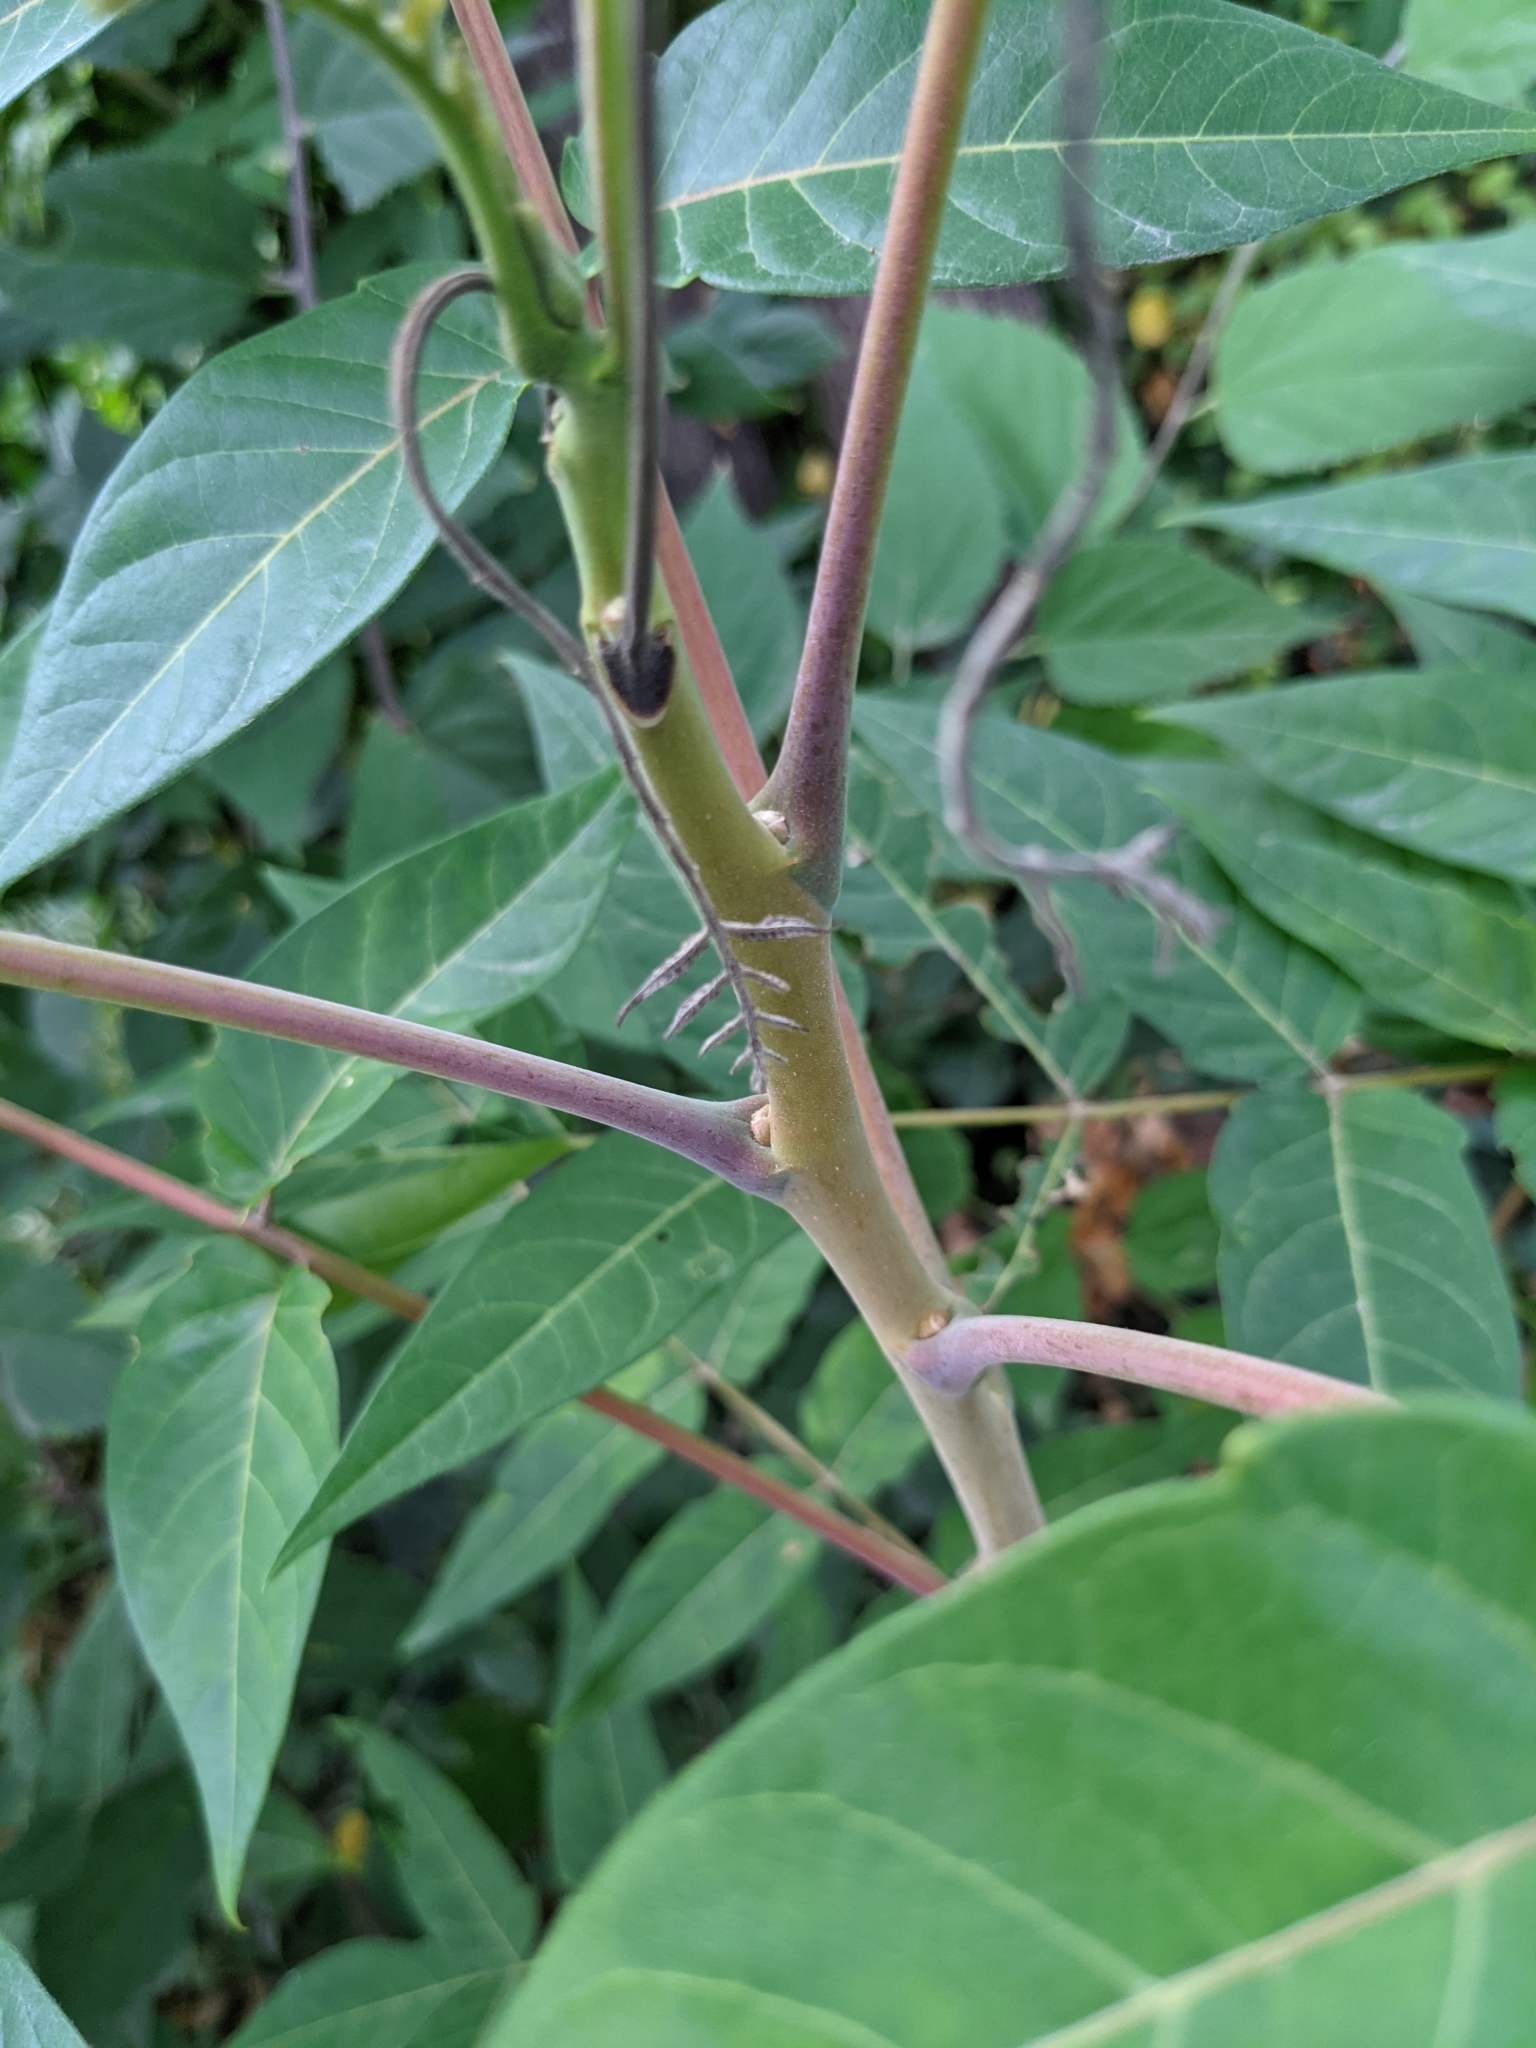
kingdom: Plantae
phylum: Tracheophyta
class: Magnoliopsida
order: Sapindales
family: Simaroubaceae
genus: Ailanthus
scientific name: Ailanthus altissima
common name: Tree-of-heaven
